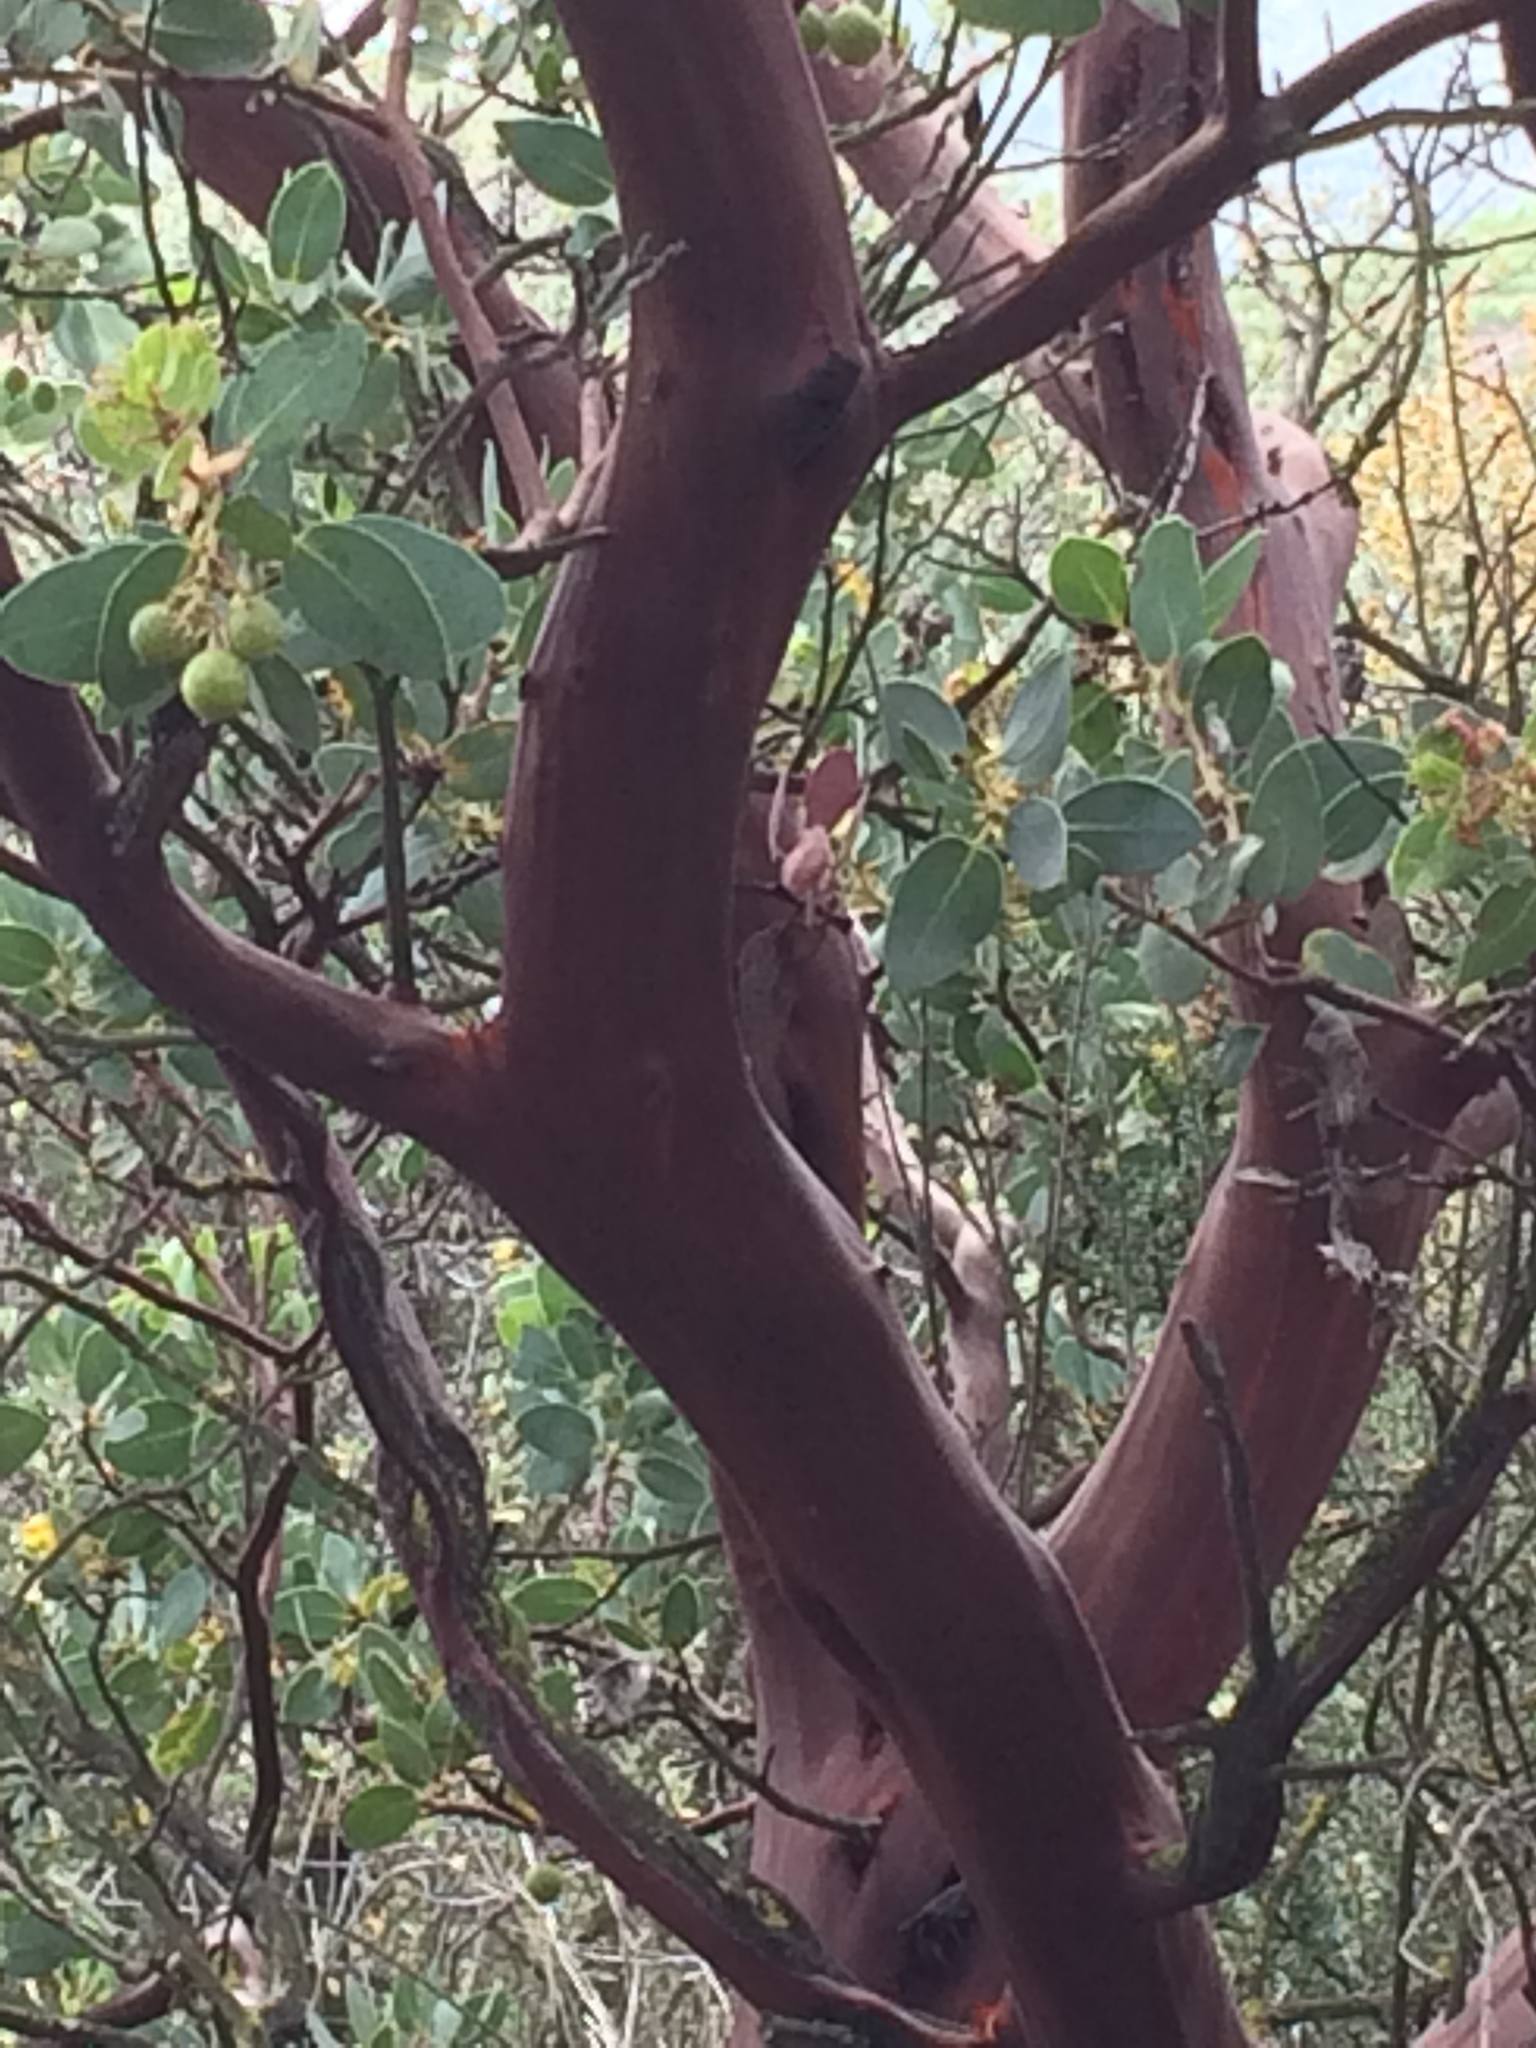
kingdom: Plantae
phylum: Tracheophyta
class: Magnoliopsida
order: Ericales
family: Ericaceae
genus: Arctostaphylos
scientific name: Arctostaphylos glauca
